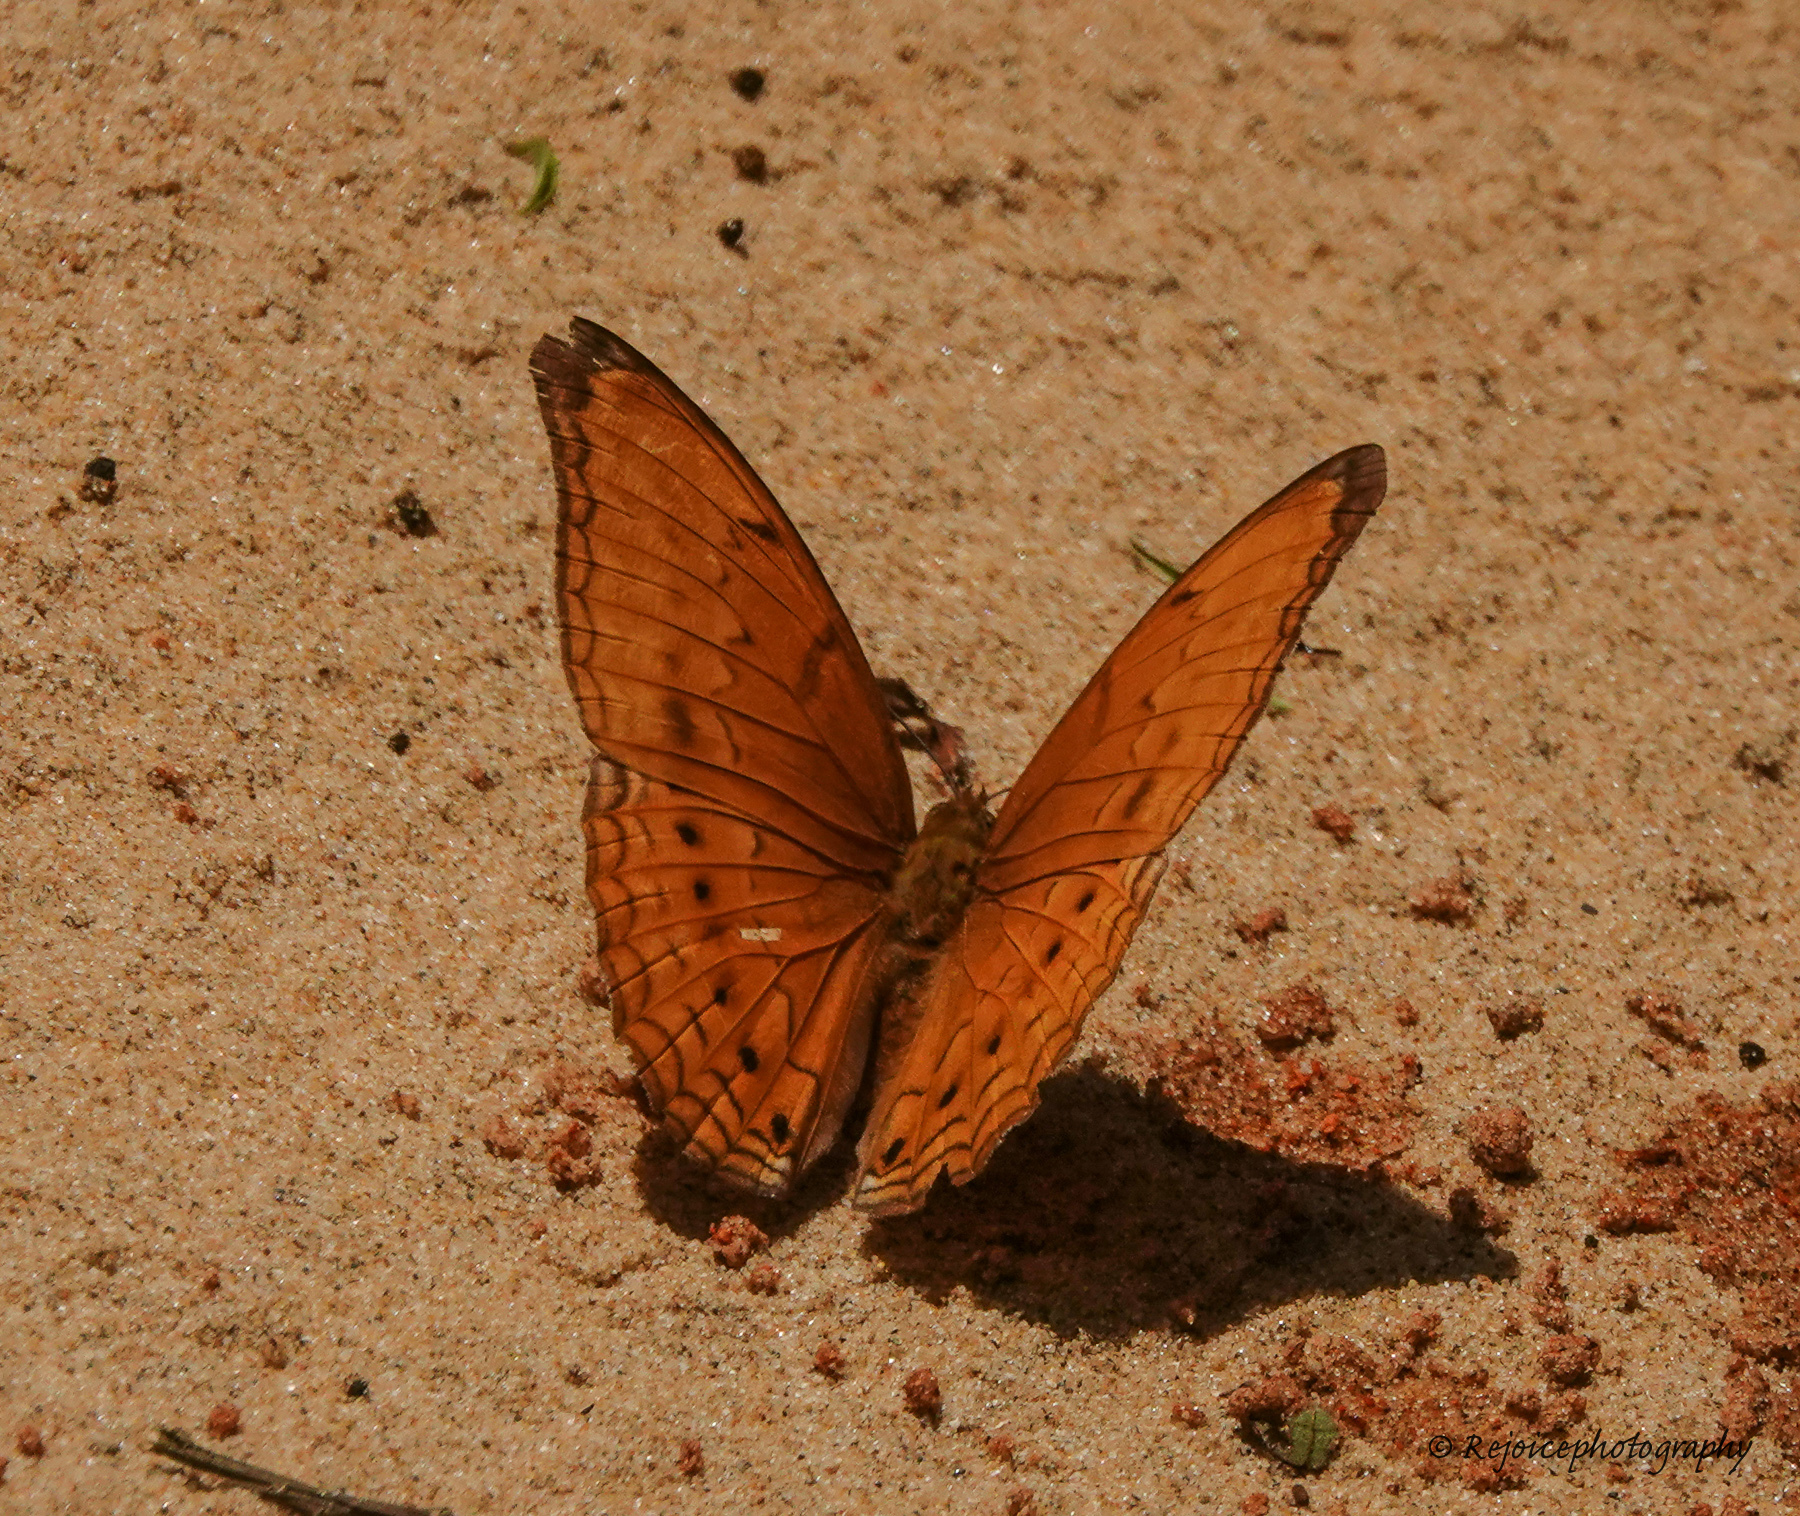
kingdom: Animalia
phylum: Arthropoda
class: Insecta
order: Lepidoptera
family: Nymphalidae
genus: Cirrochroa
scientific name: Cirrochroa aoris
